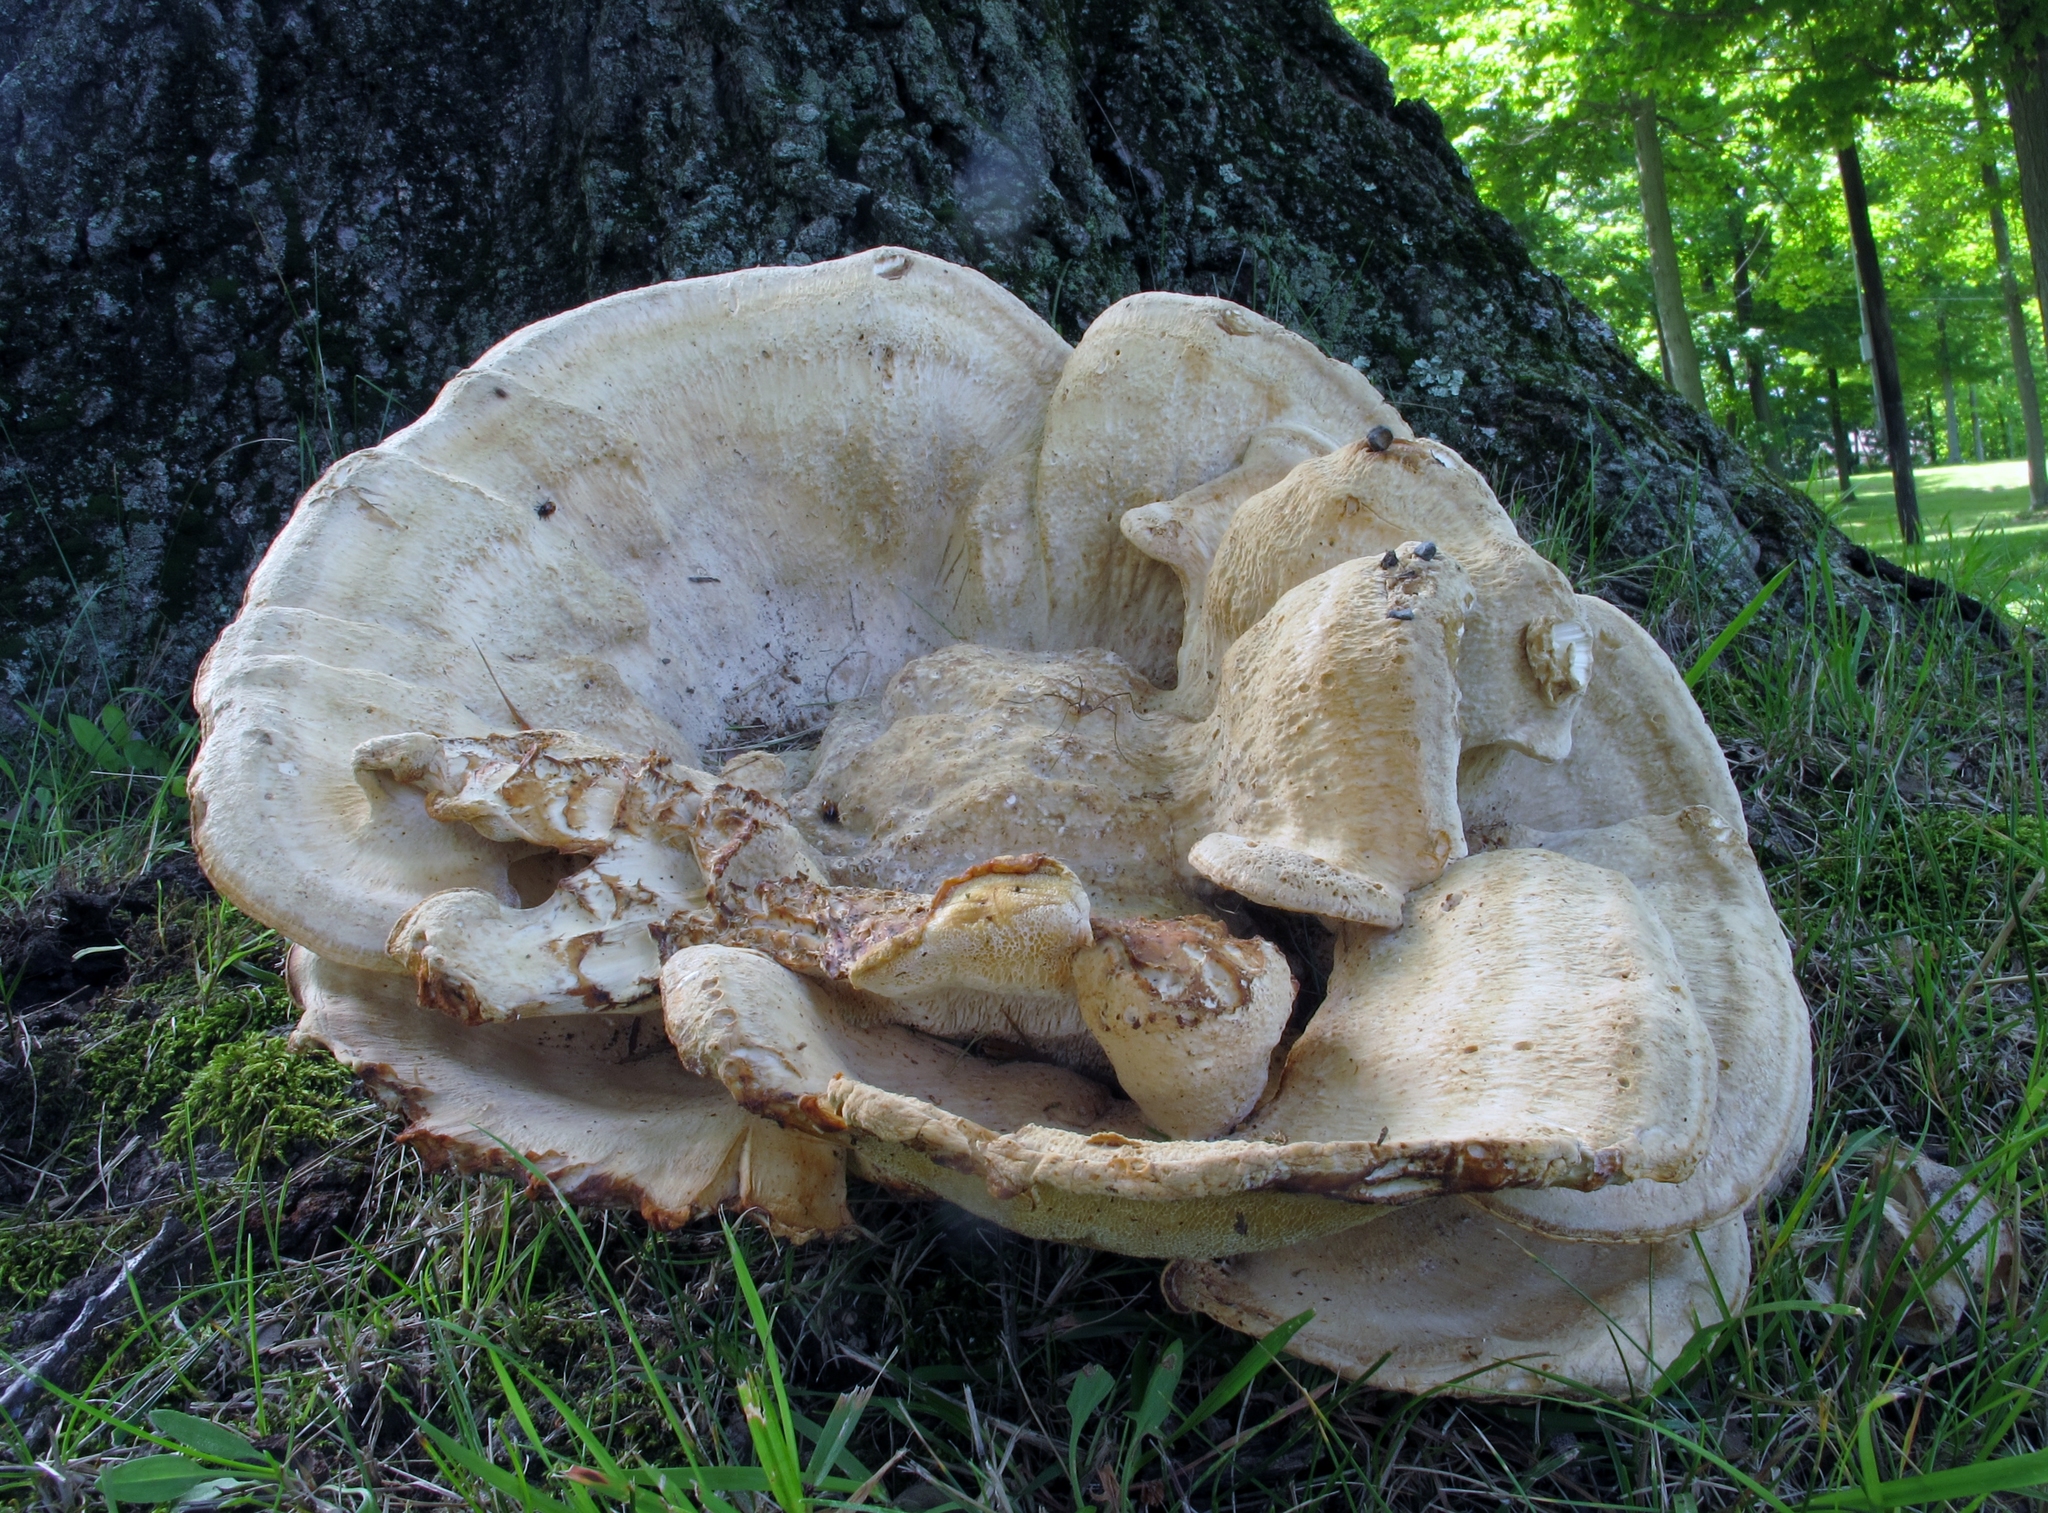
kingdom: Fungi
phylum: Basidiomycota
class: Agaricomycetes
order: Russulales
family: Bondarzewiaceae
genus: Bondarzewia
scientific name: Bondarzewia berkeleyi
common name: Berkeley's polypore
